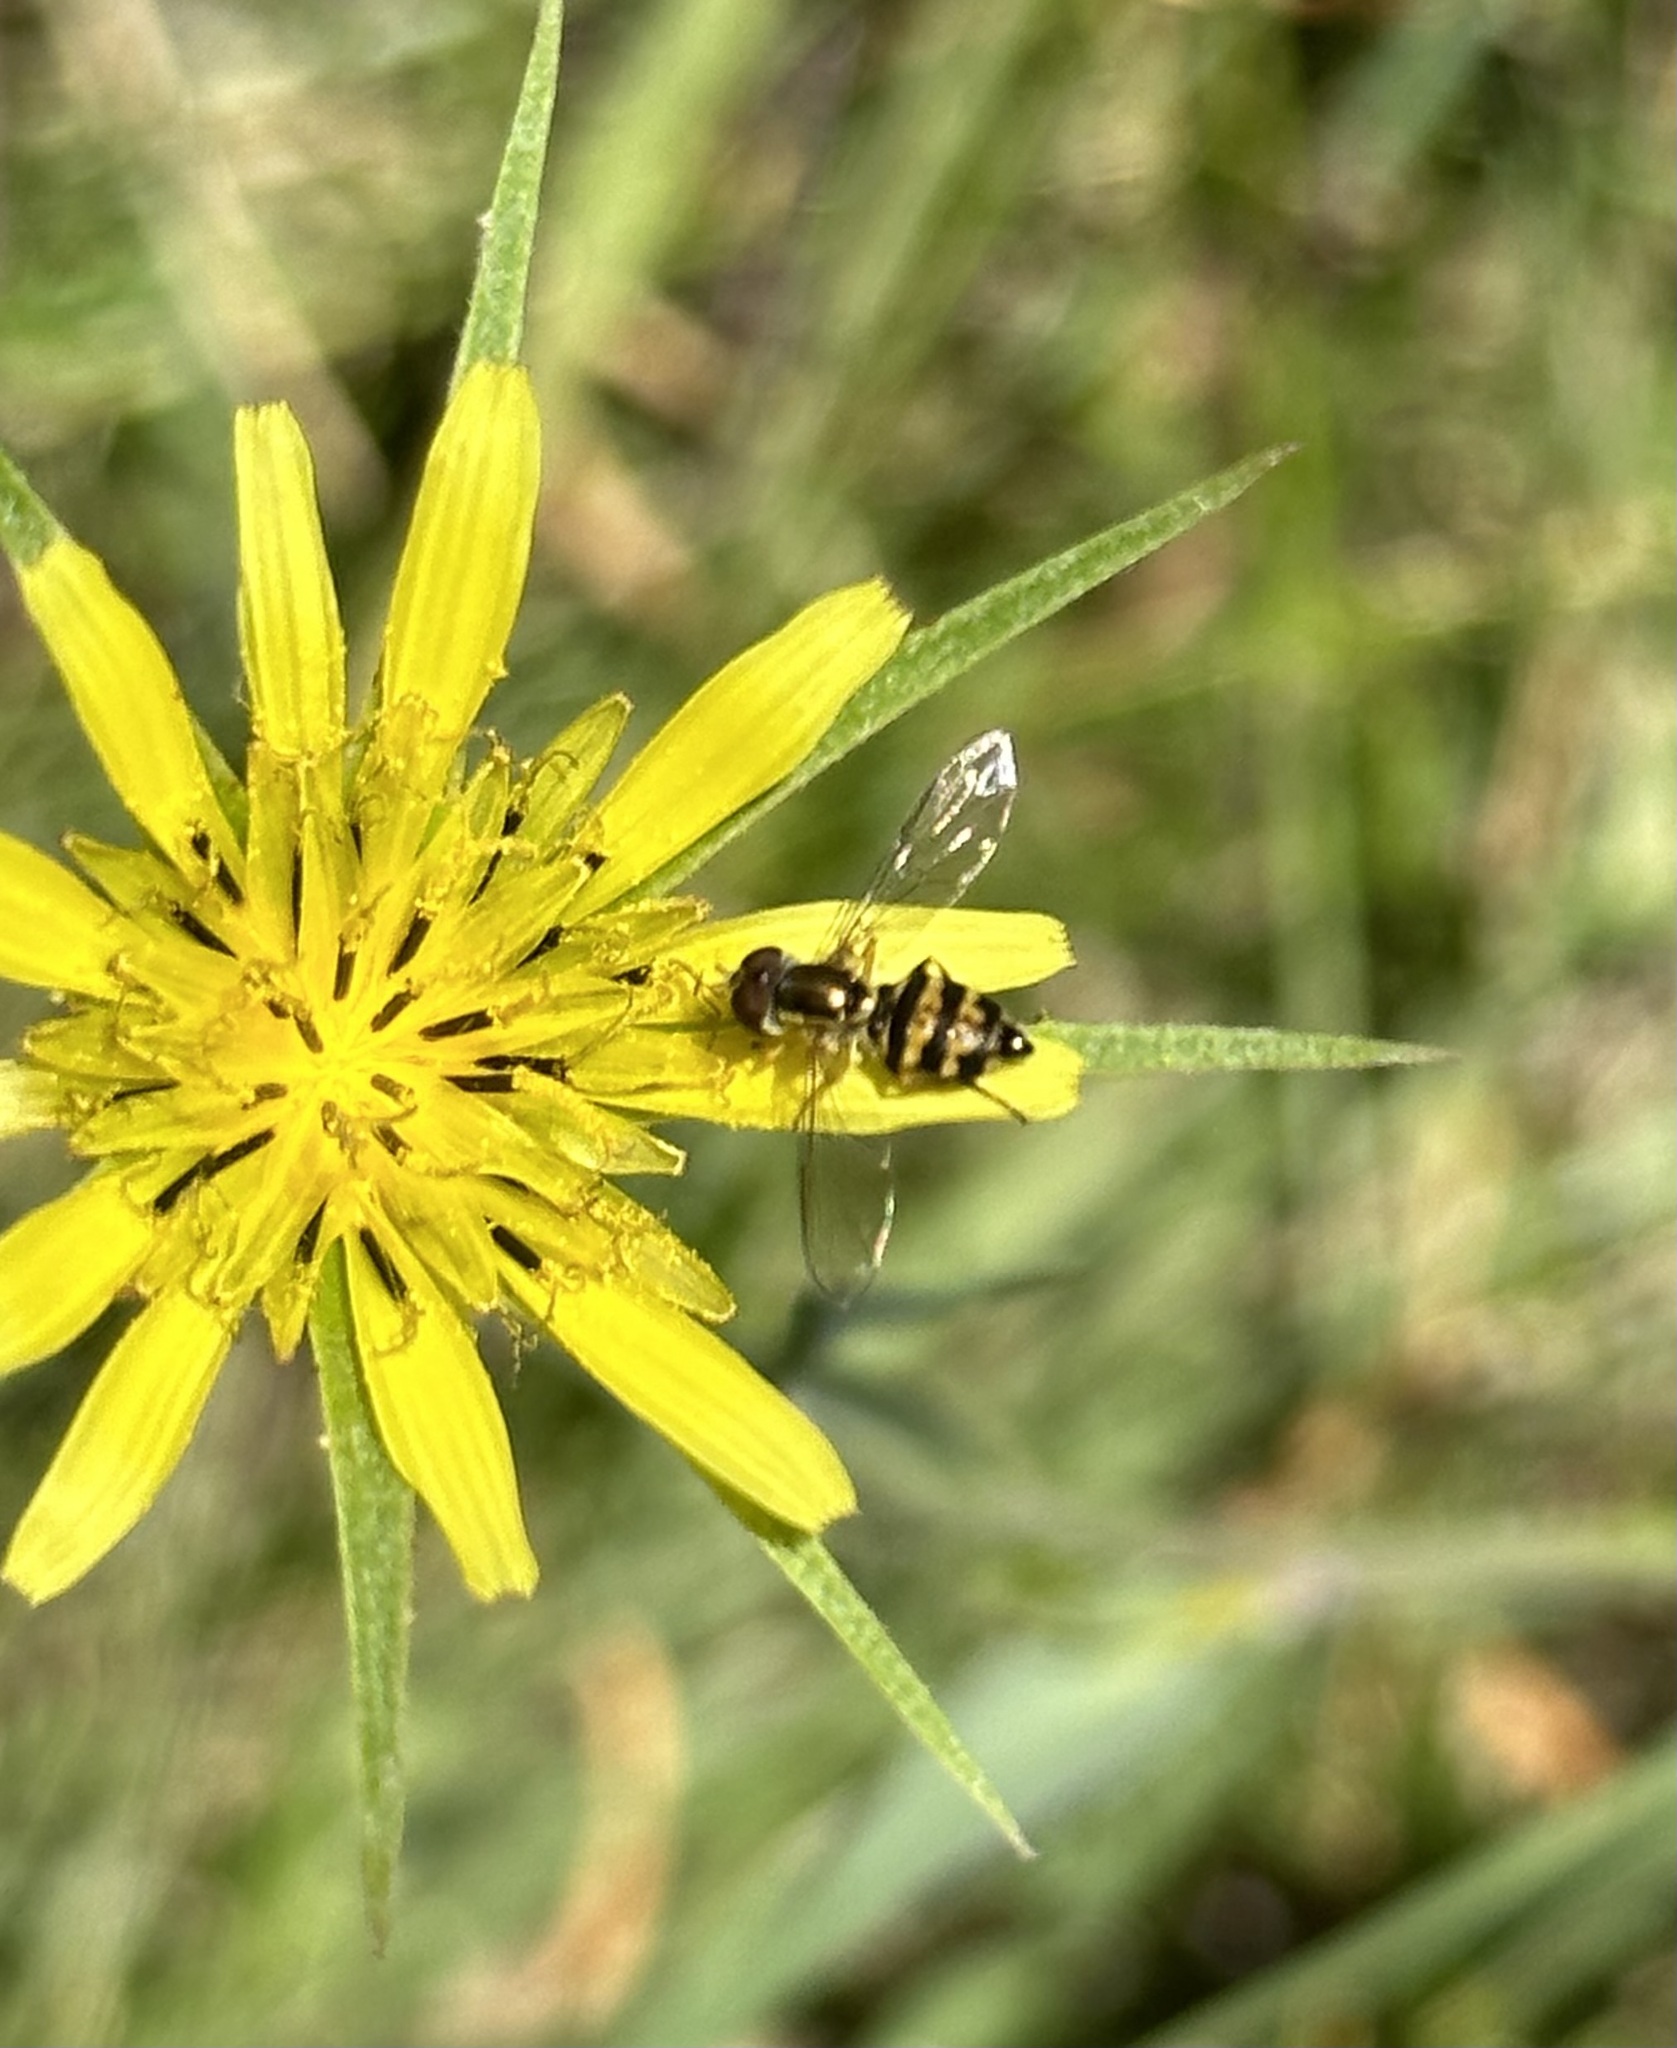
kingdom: Animalia
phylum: Arthropoda
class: Insecta
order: Diptera
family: Syrphidae
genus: Toxomerus
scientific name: Toxomerus occidentalis
